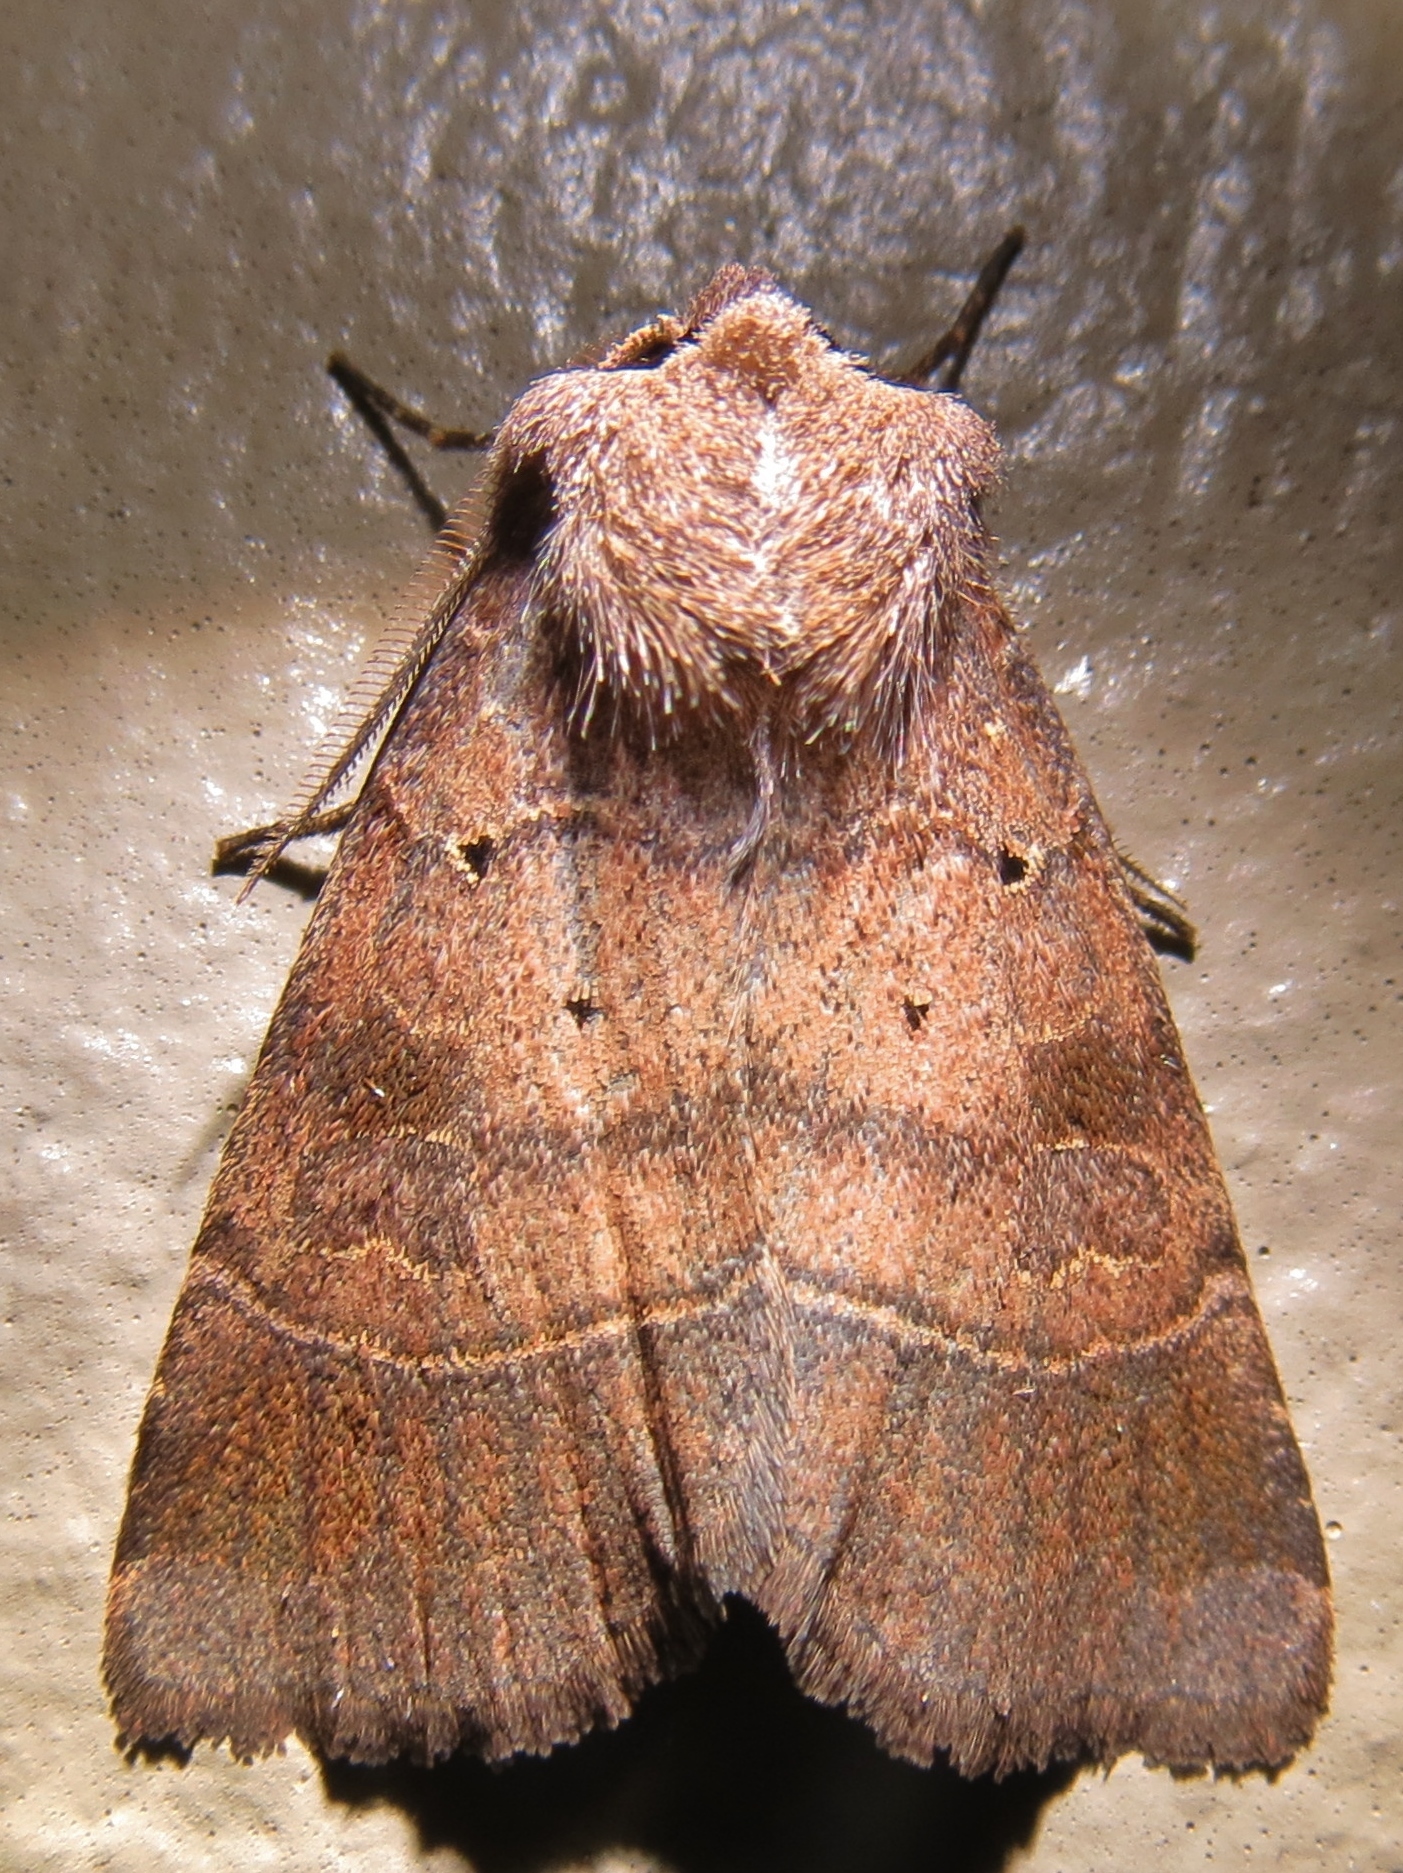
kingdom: Animalia
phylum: Arthropoda
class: Insecta
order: Lepidoptera
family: Noctuidae
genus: Agnorisma
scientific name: Agnorisma badinodis
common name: Pale-banded dart
